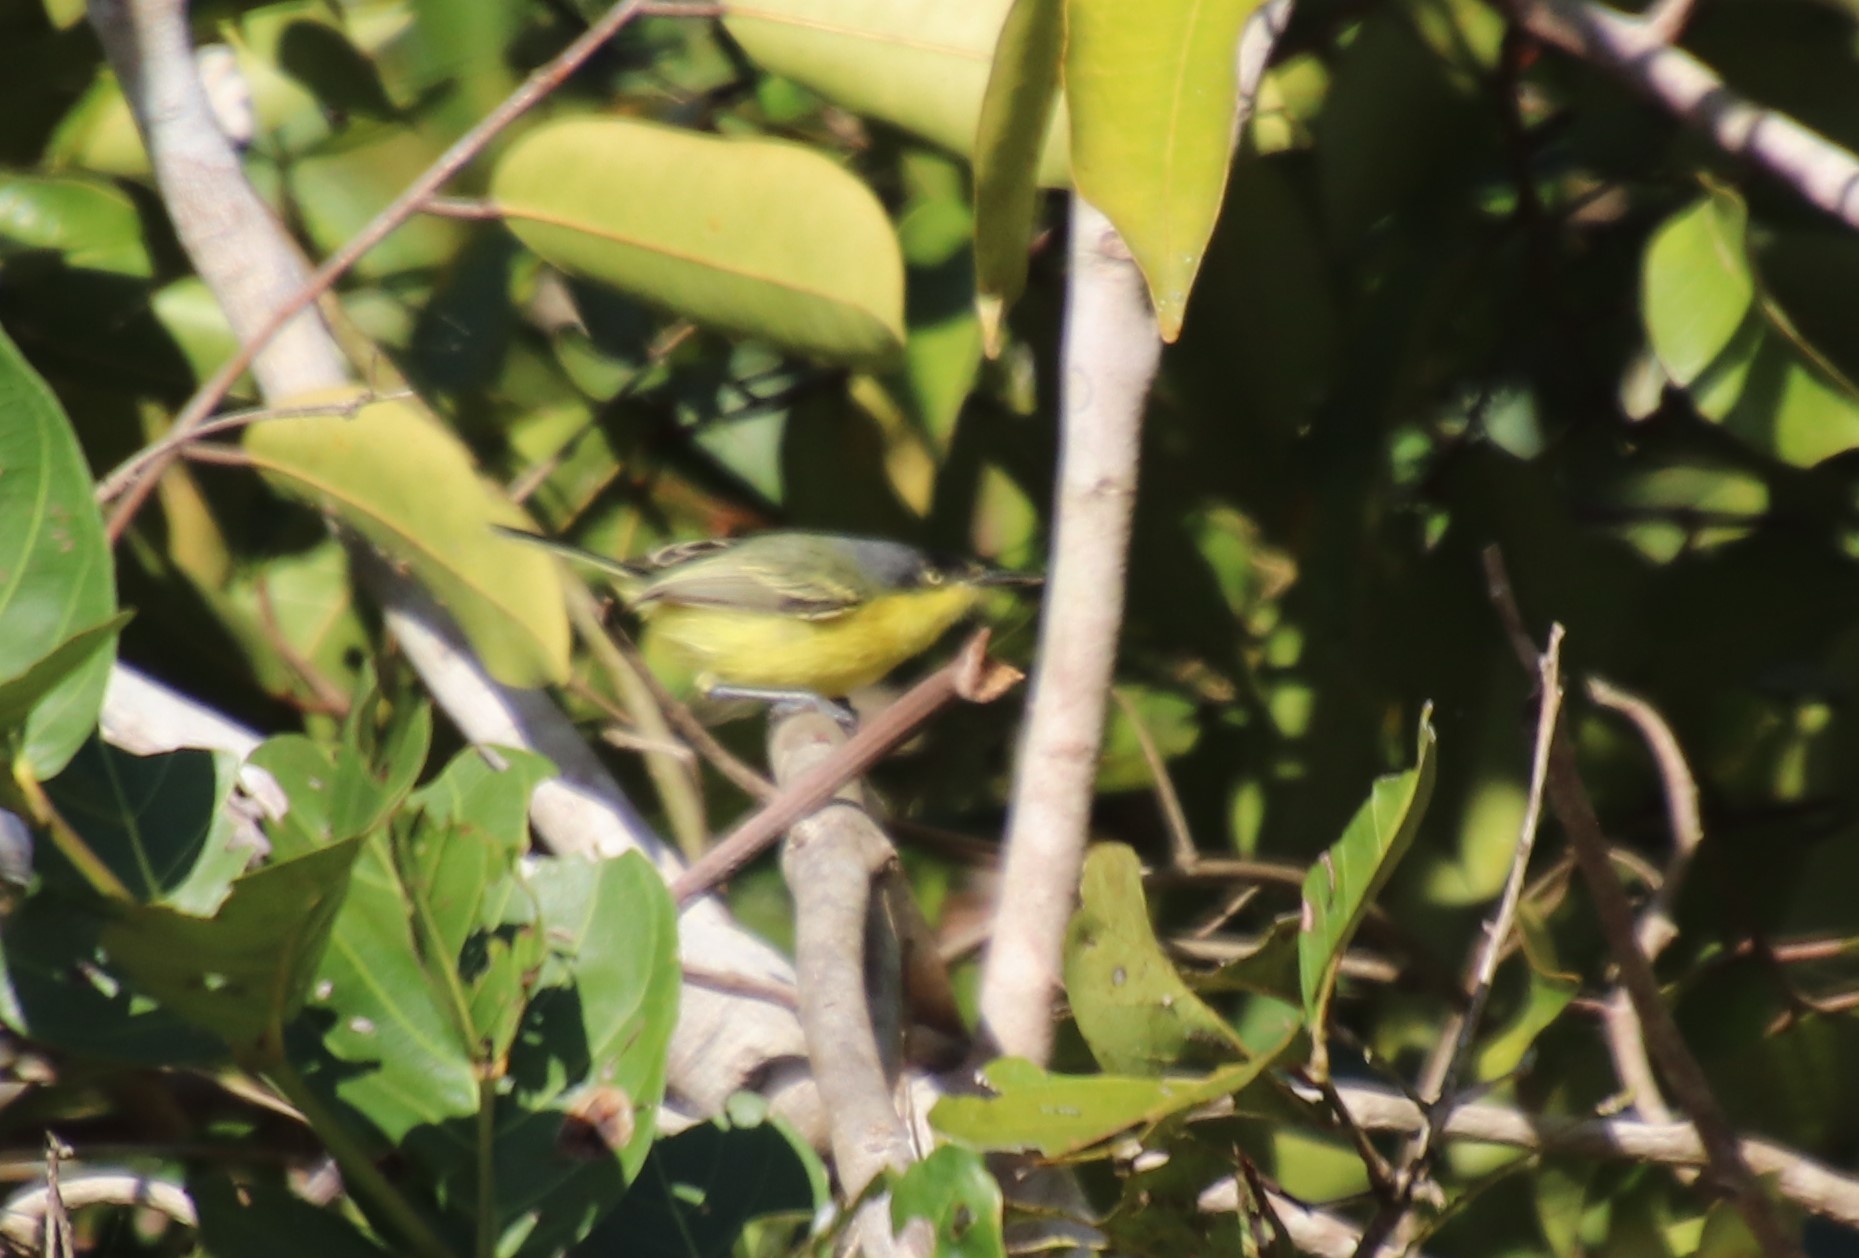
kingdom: Animalia
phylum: Chordata
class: Aves
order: Passeriformes
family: Tyrannidae
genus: Todirostrum
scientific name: Todirostrum cinereum
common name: Common tody-flycatcher
